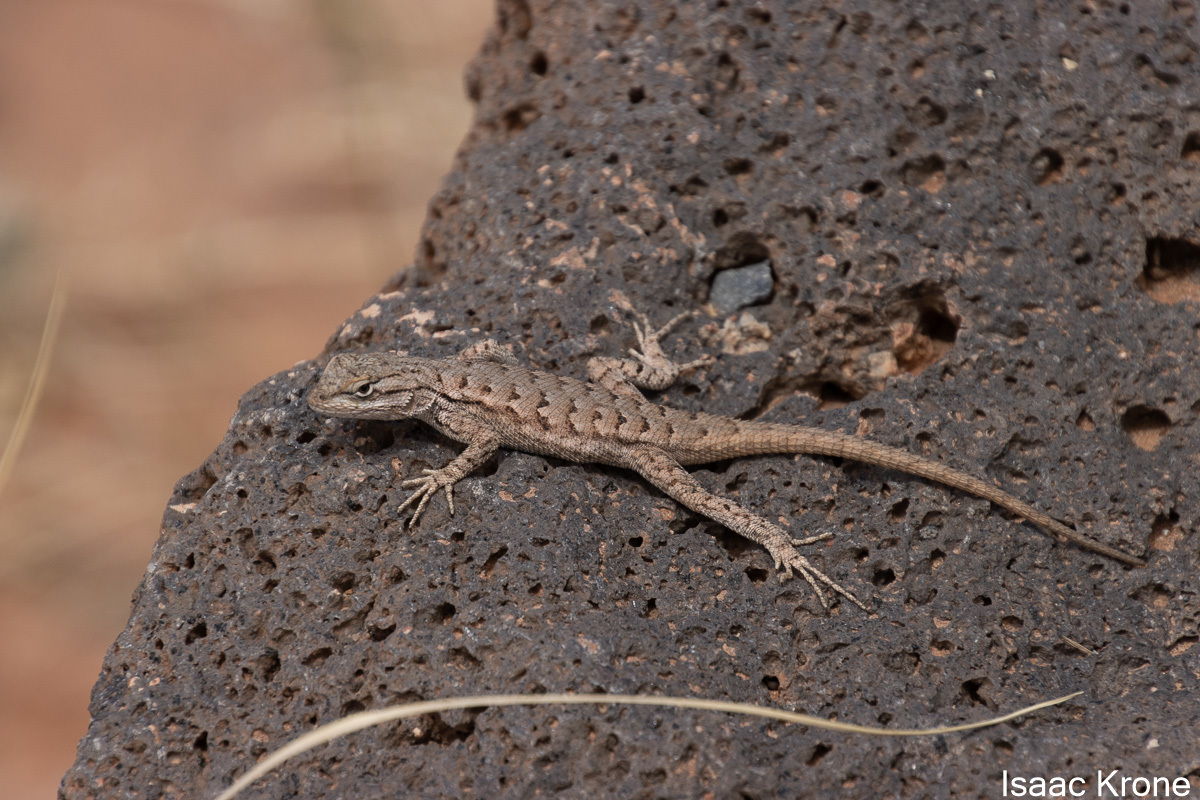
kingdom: Animalia
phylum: Chordata
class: Squamata
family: Phrynosomatidae
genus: Sceloporus
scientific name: Sceloporus tristichus
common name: Plateau fence lizard
